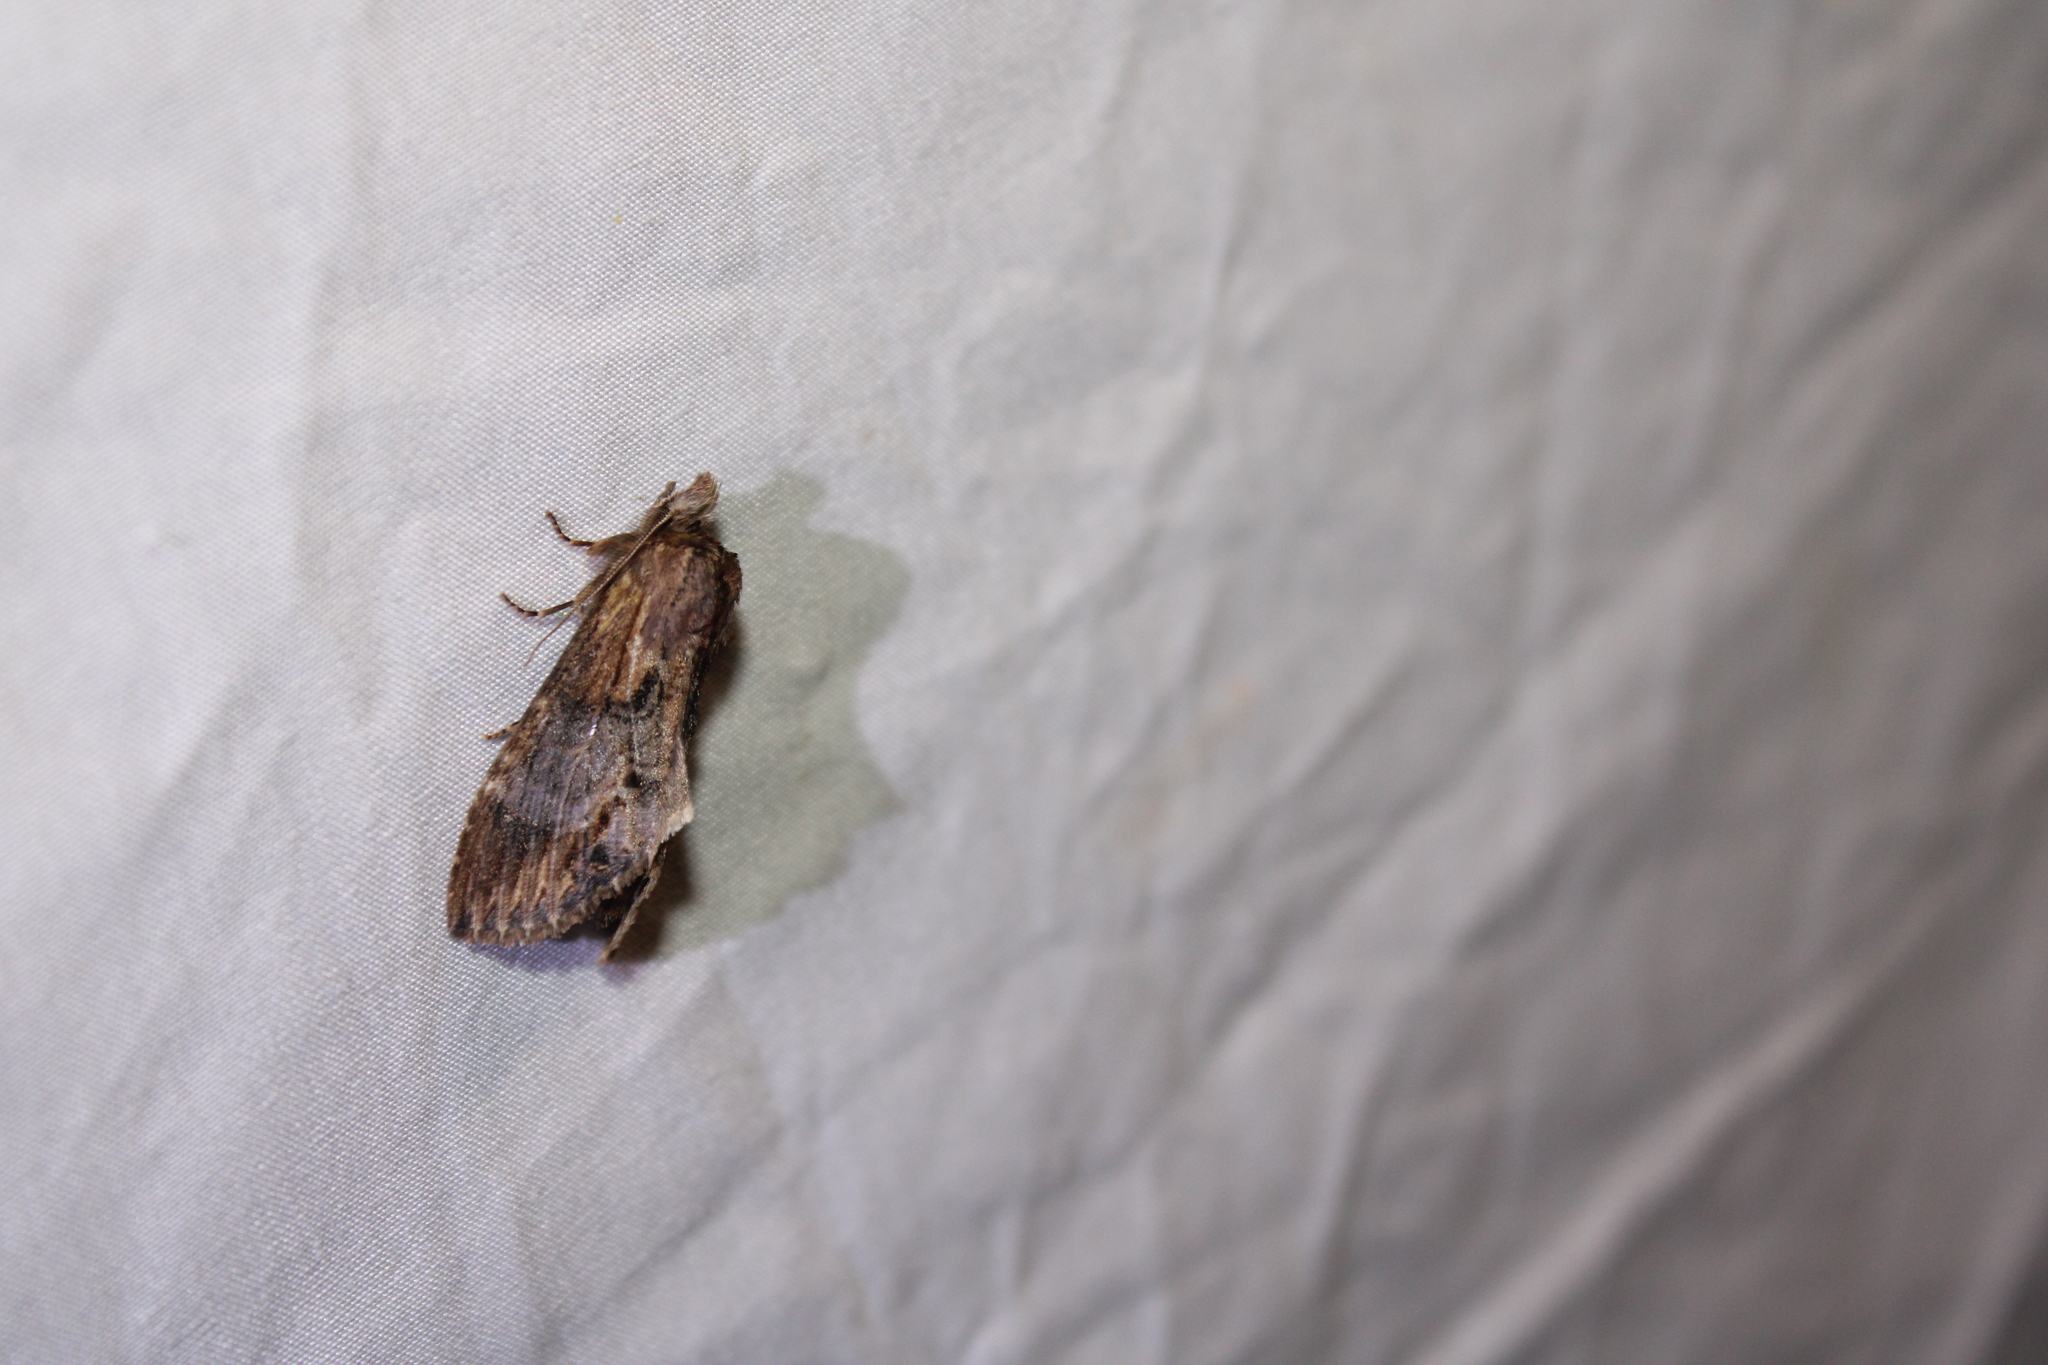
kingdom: Animalia
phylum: Arthropoda
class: Insecta
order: Lepidoptera
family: Notodontidae
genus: Dasylophia
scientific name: Dasylophia thyatiroides
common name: Gray-patched prominent
